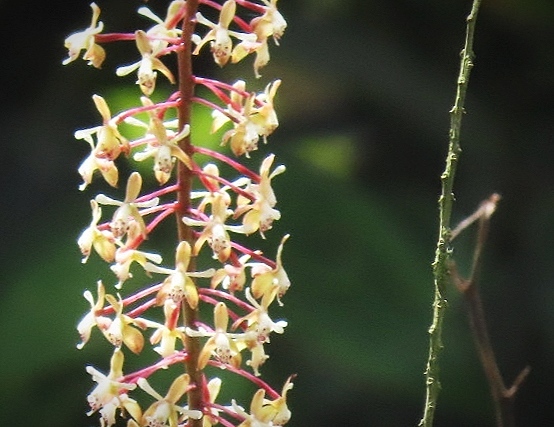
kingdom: Plantae
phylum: Tracheophyta
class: Liliopsida
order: Asparagales
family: Orchidaceae
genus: Epidendrum
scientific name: Epidendrum cylindraceum
